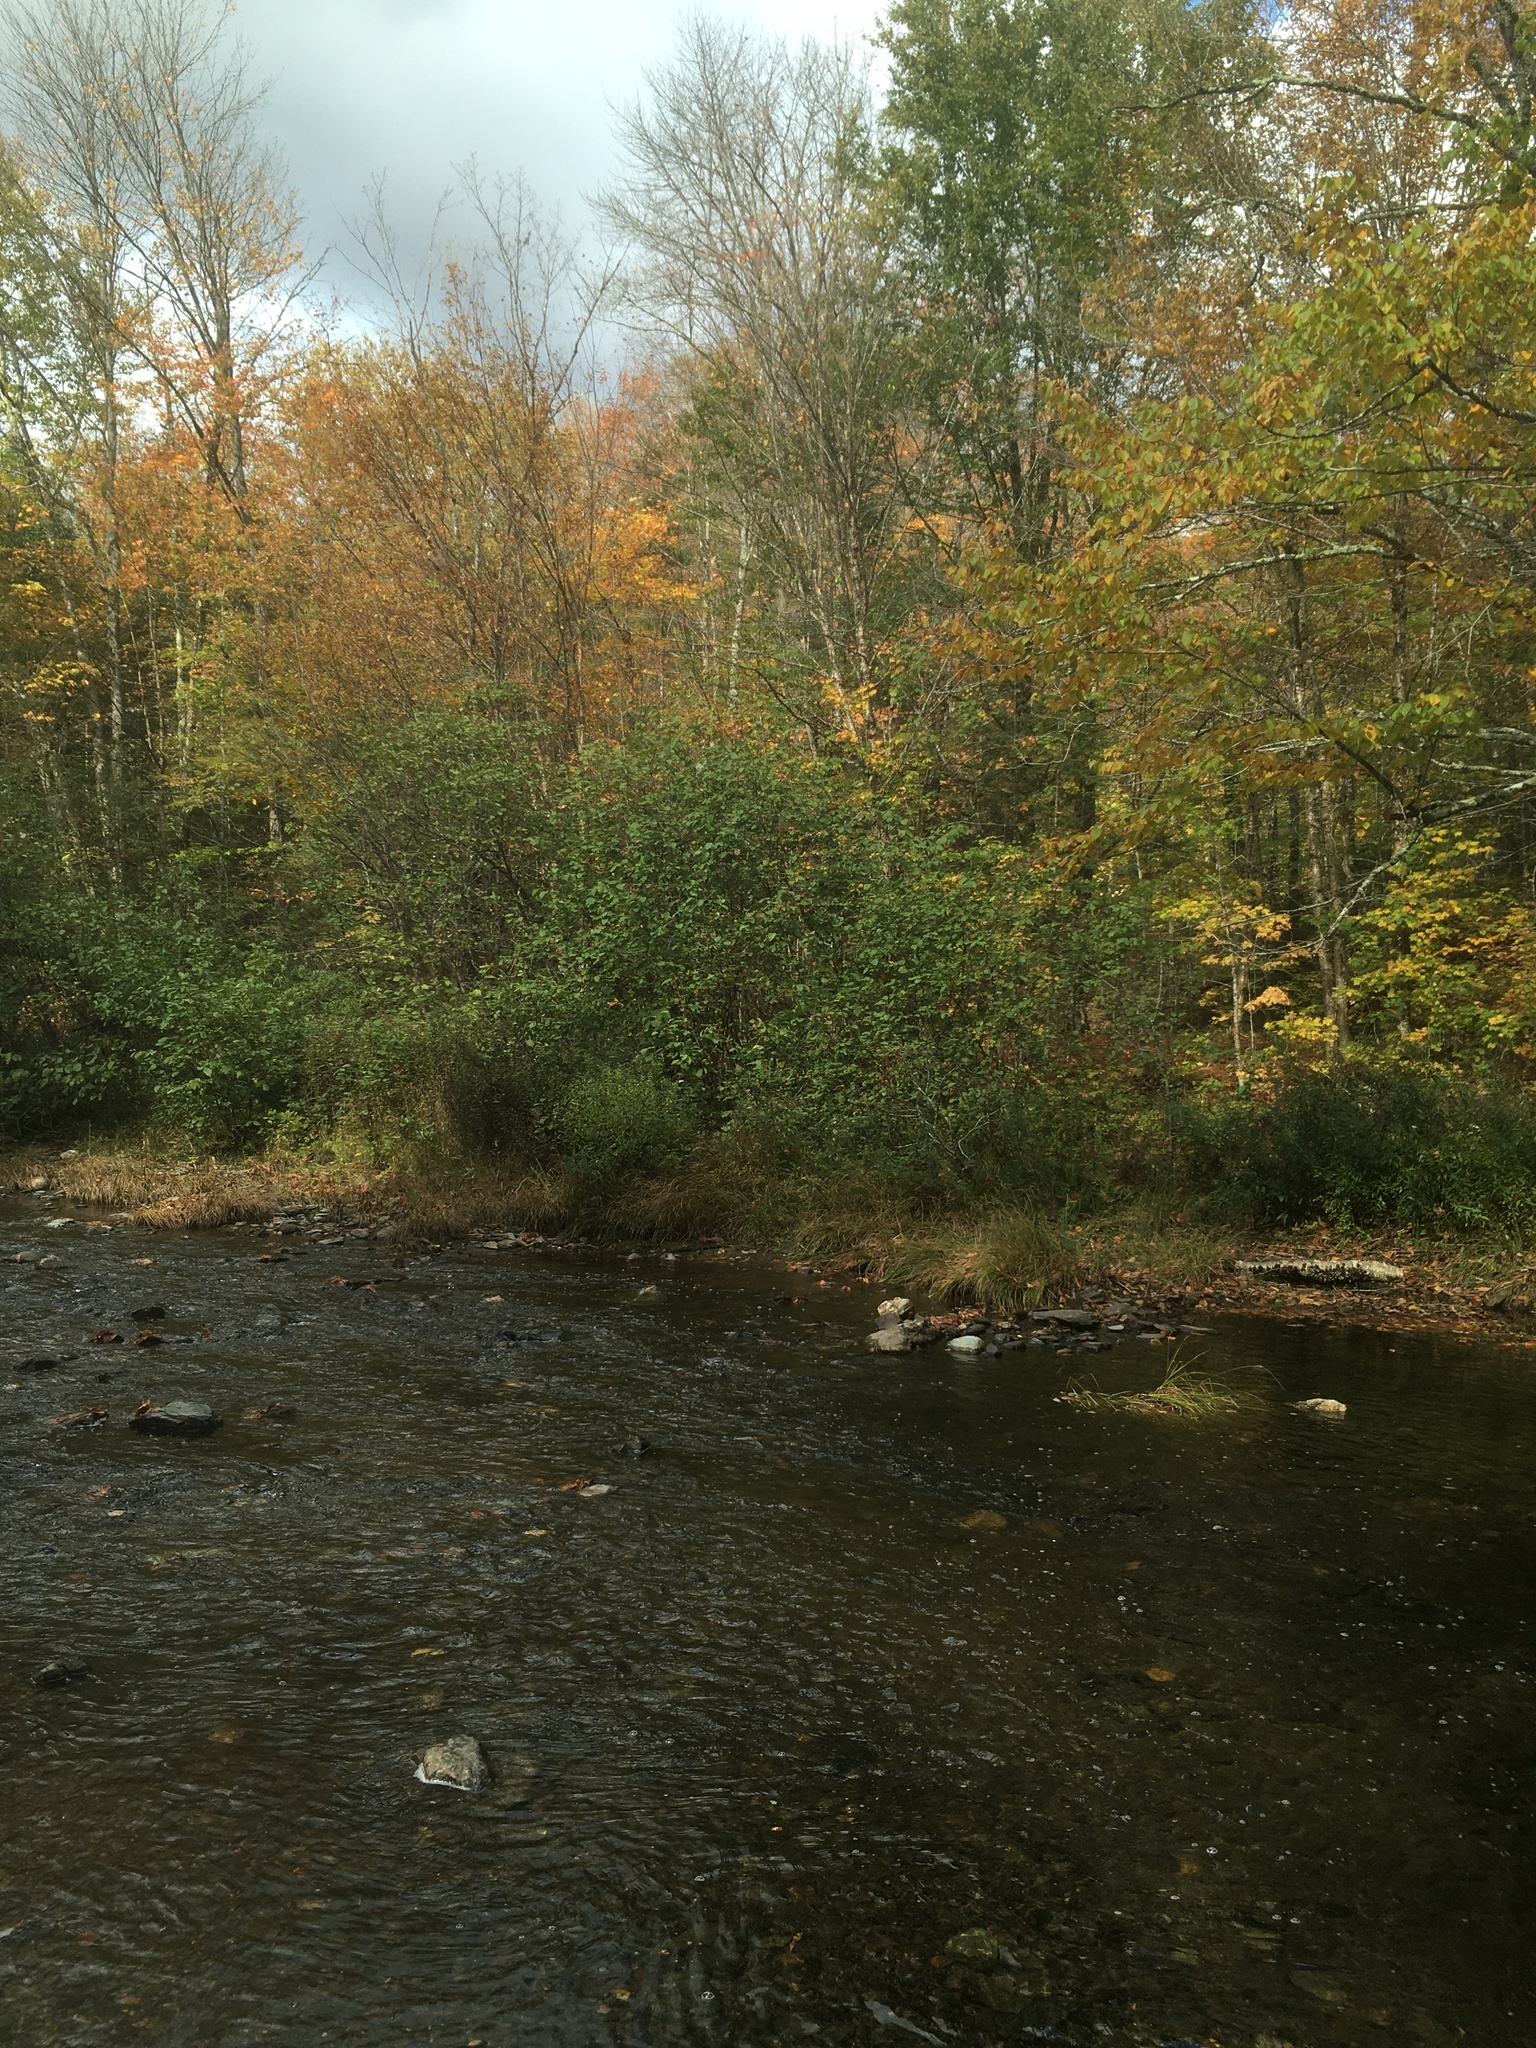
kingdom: Plantae
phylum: Tracheophyta
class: Magnoliopsida
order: Fagales
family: Betulaceae
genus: Alnus
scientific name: Alnus incana
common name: Grey alder
